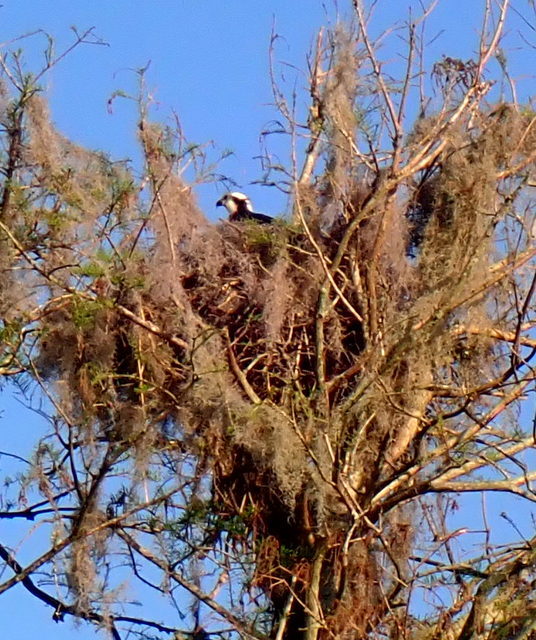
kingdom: Animalia
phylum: Chordata
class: Aves
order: Accipitriformes
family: Pandionidae
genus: Pandion
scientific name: Pandion haliaetus
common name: Osprey
